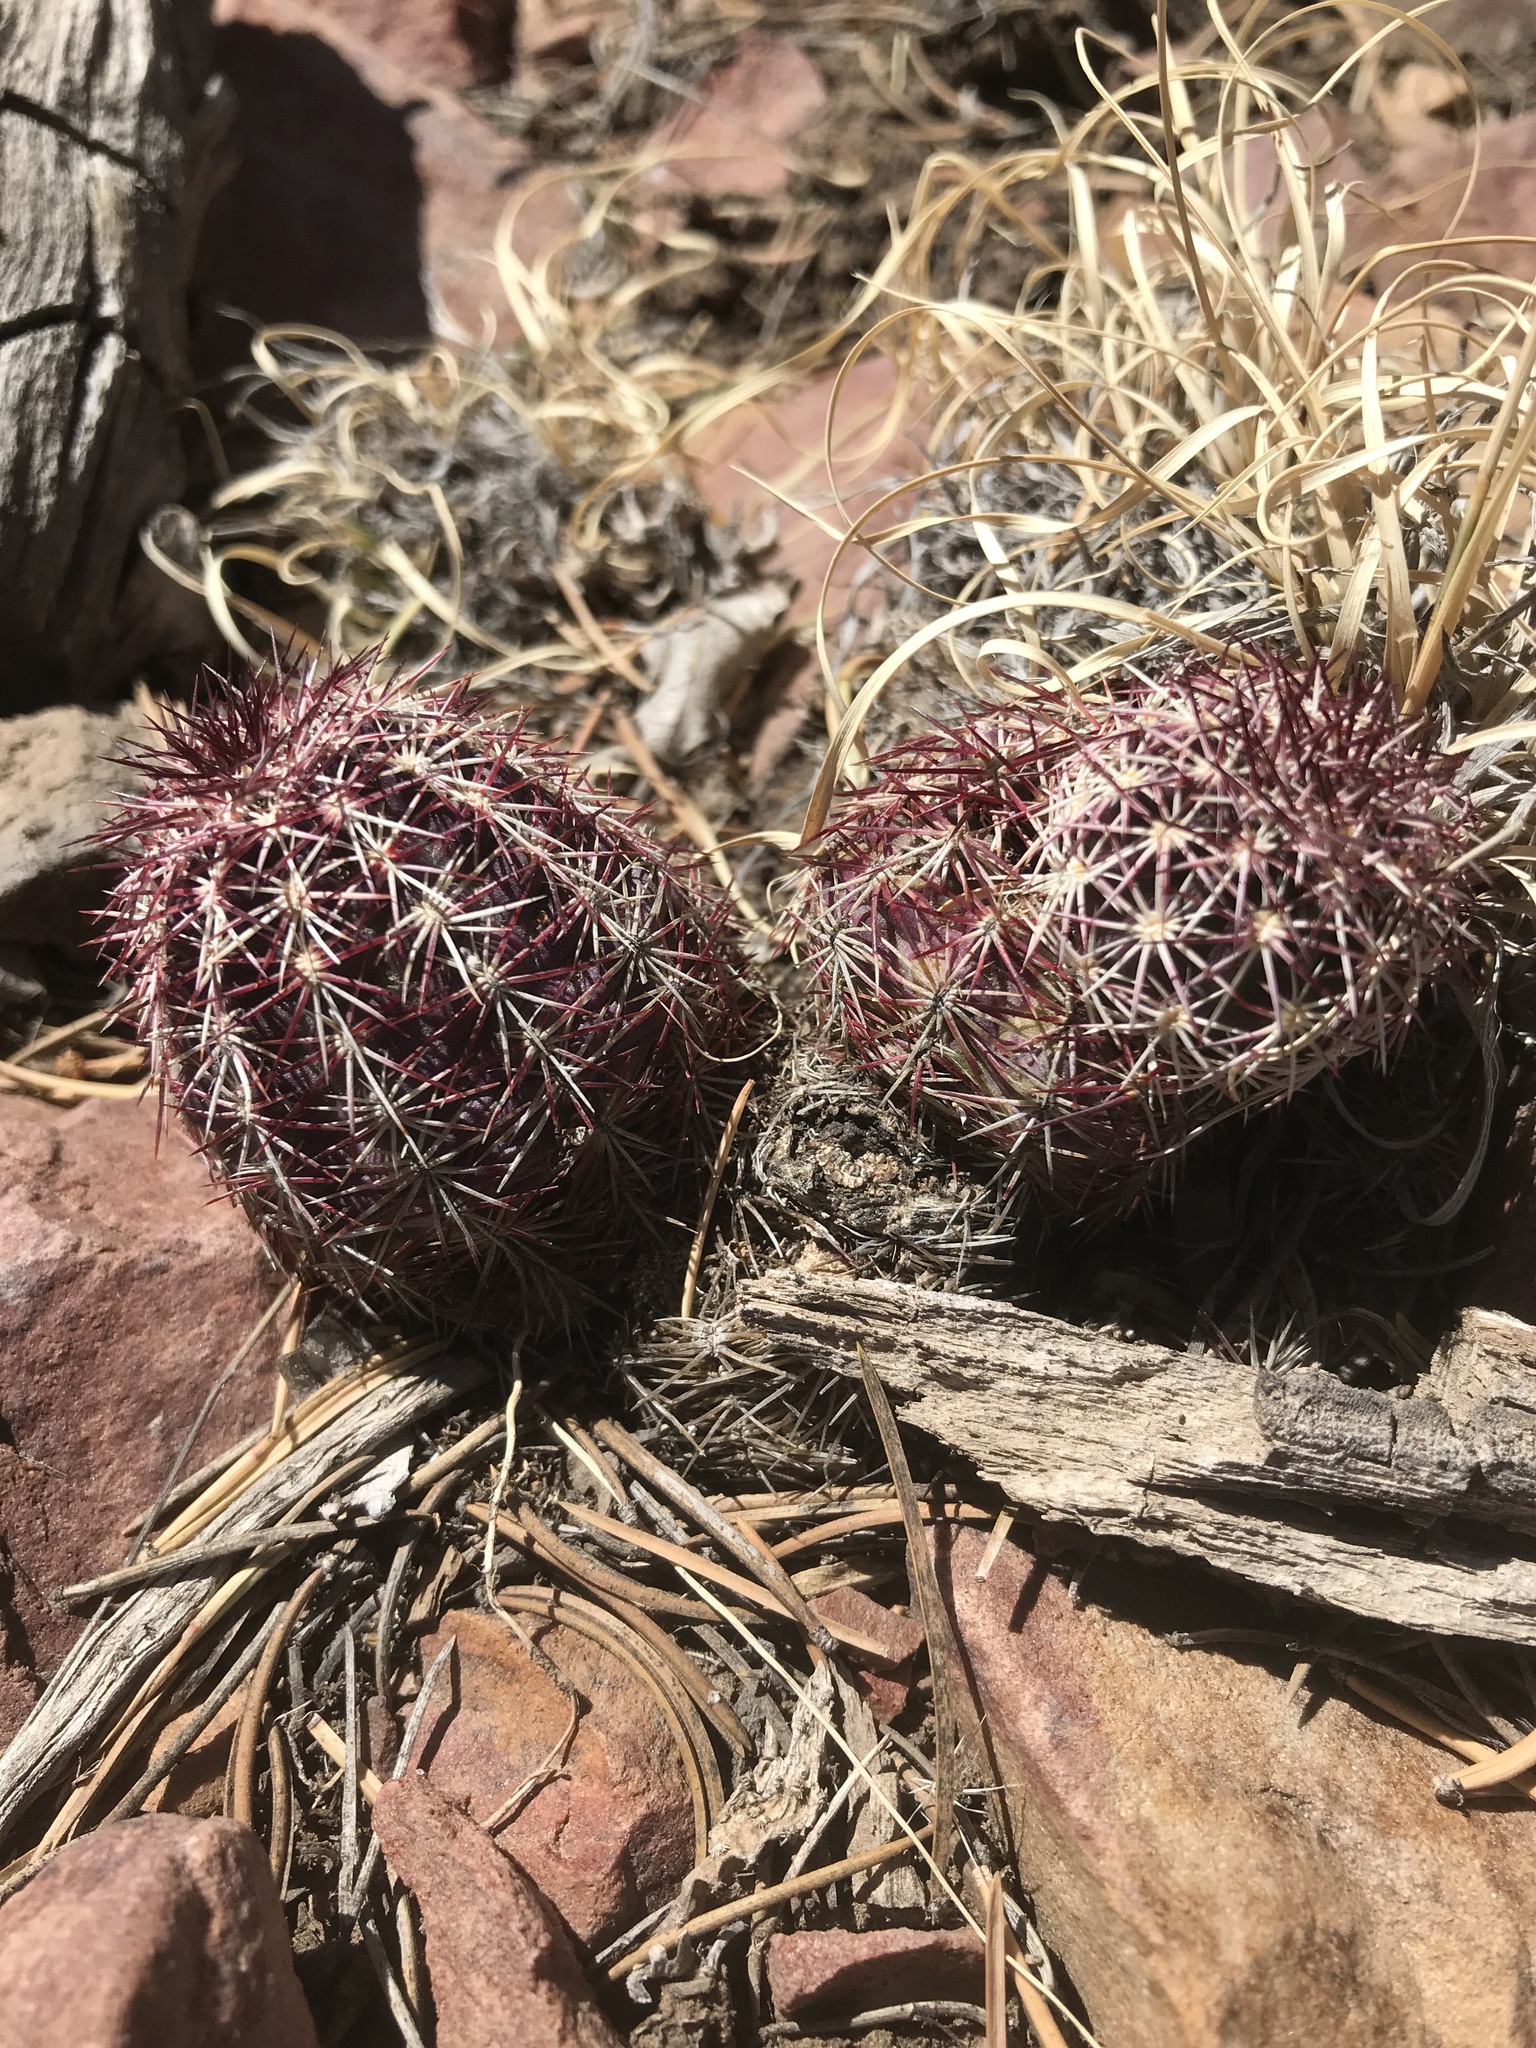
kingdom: Plantae
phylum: Tracheophyta
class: Magnoliopsida
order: Caryophyllales
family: Cactaceae
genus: Echinocereus
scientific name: Echinocereus viridiflorus
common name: Nylon hedgehog cactus
